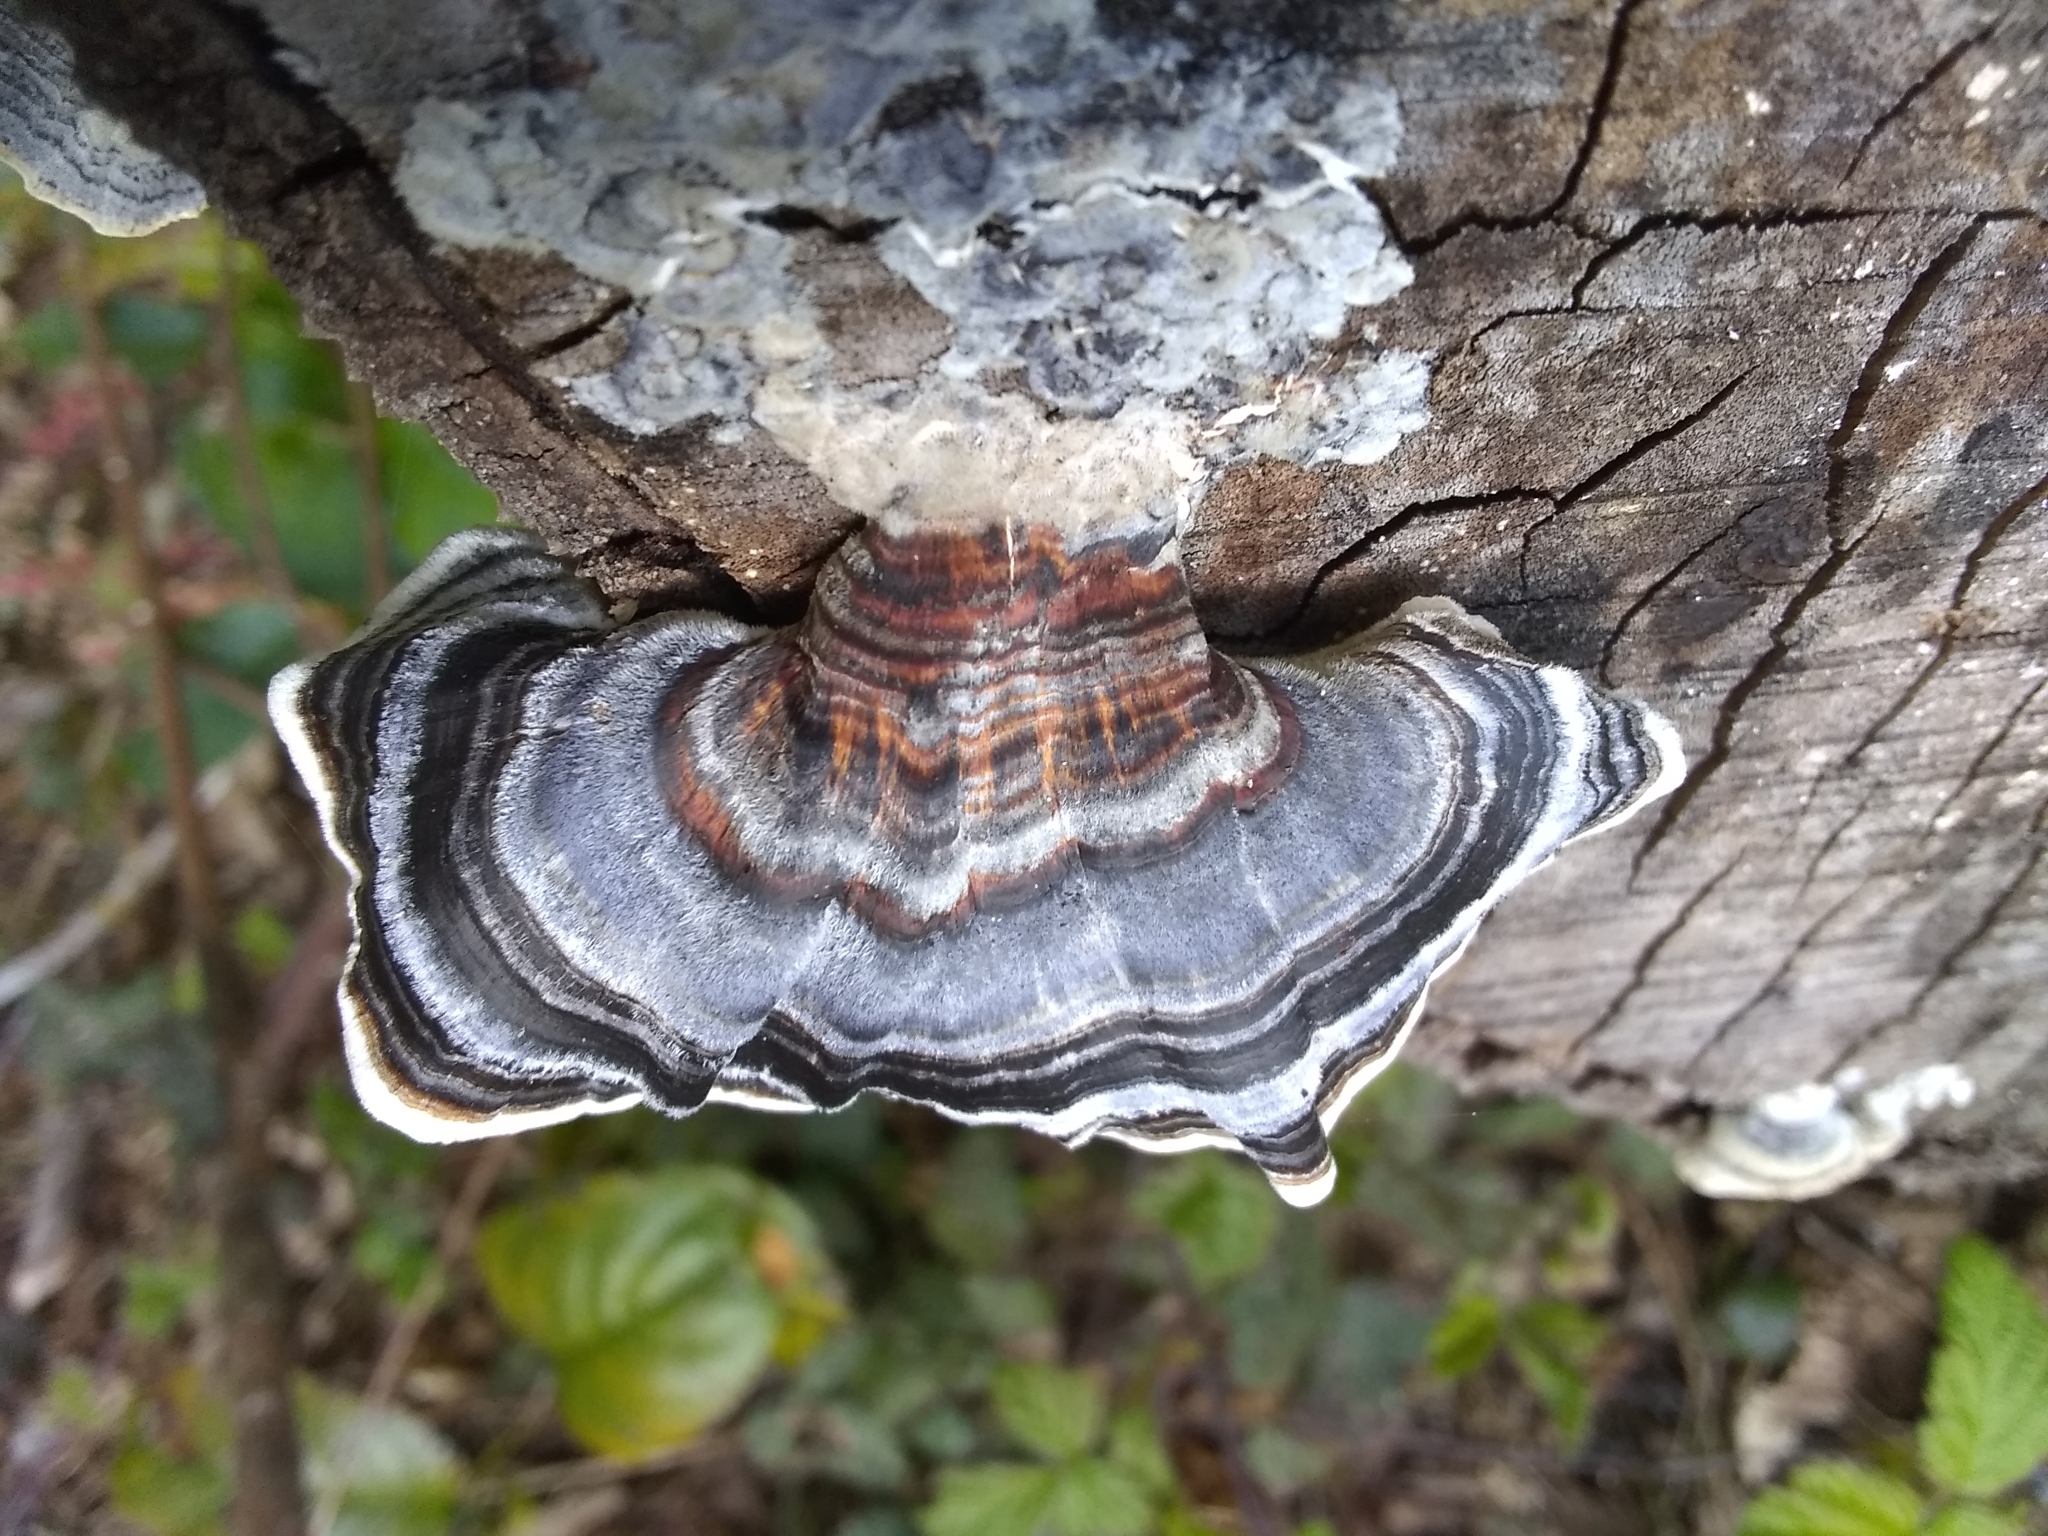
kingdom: Fungi
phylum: Basidiomycota
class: Agaricomycetes
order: Polyporales
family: Polyporaceae
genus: Trametes
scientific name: Trametes versicolor
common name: Turkeytail
